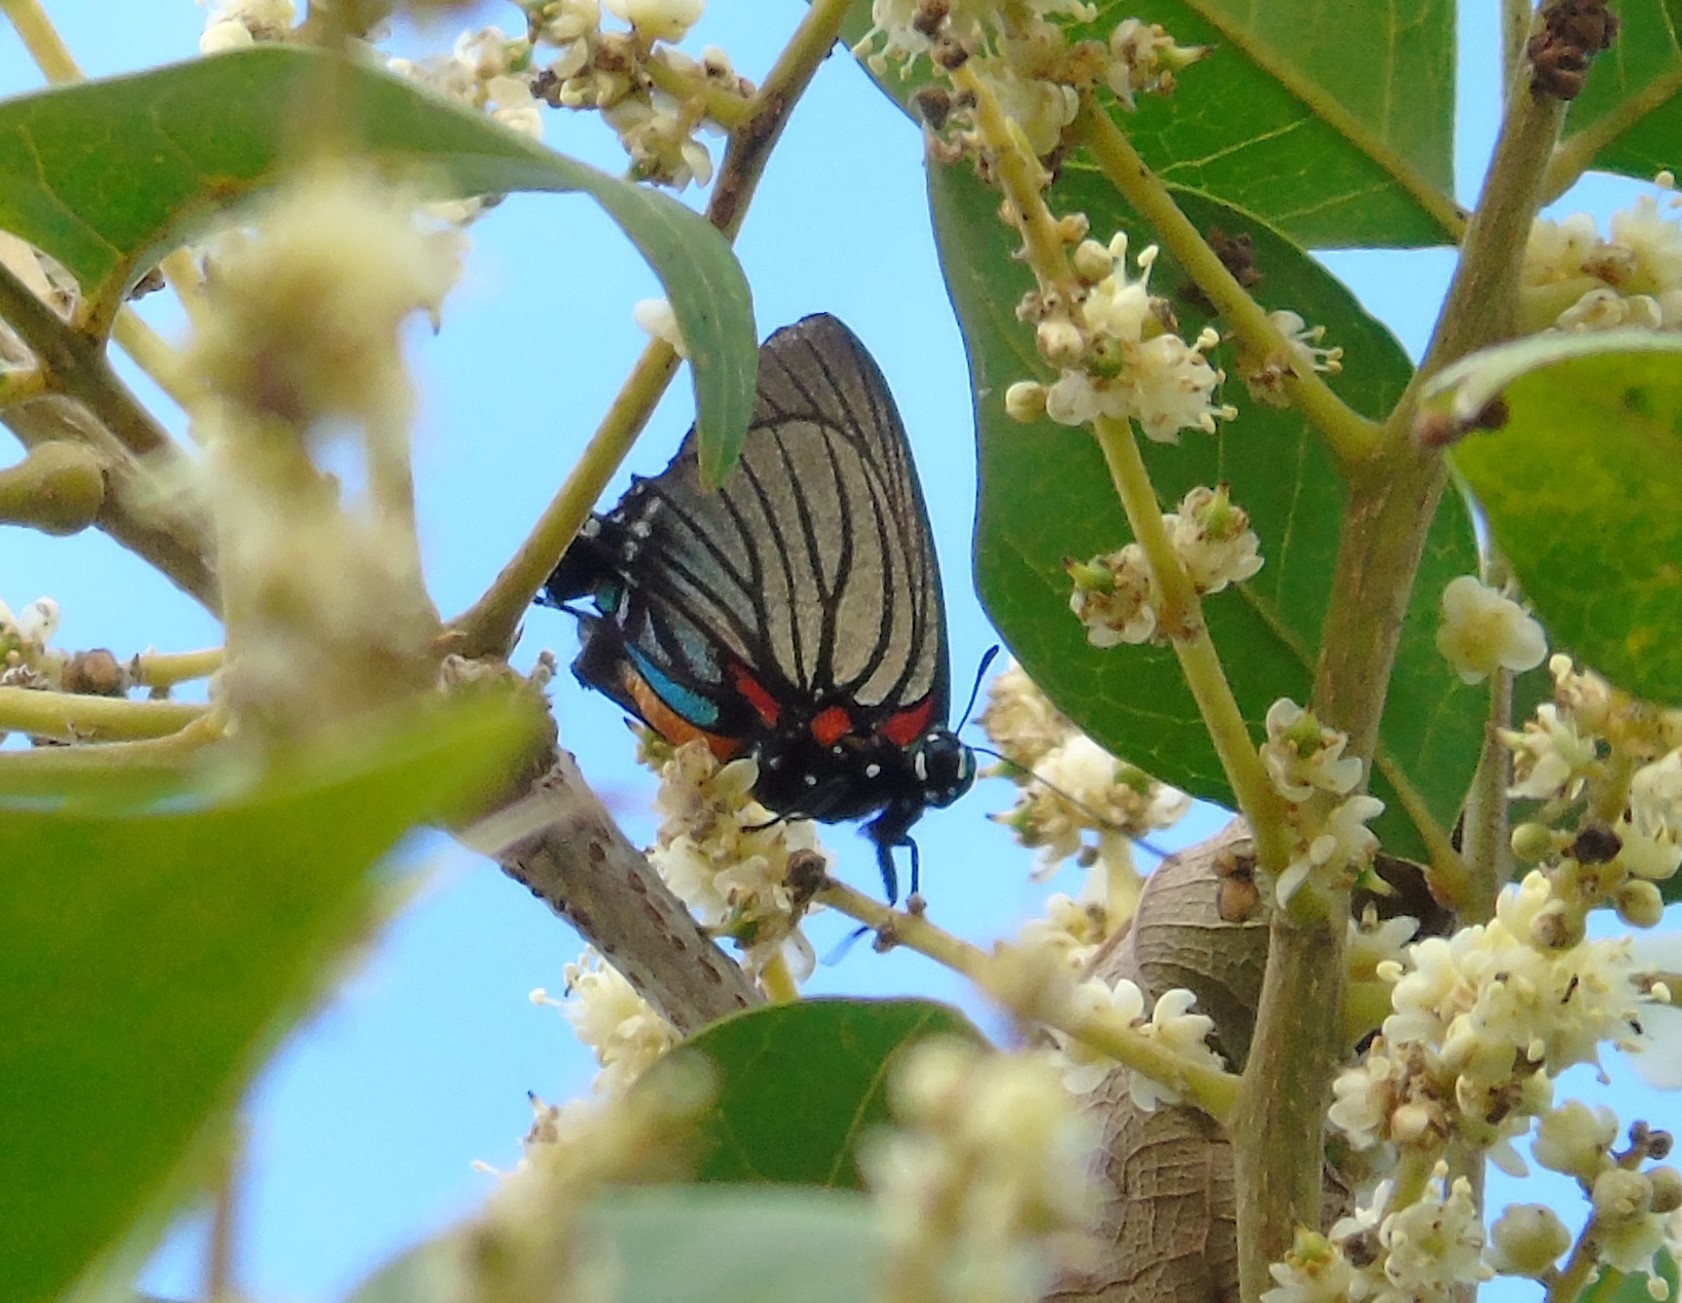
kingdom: Animalia
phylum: Arthropoda
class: Insecta
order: Lepidoptera
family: Lycaenidae
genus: Thecla
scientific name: Thecla polybe
